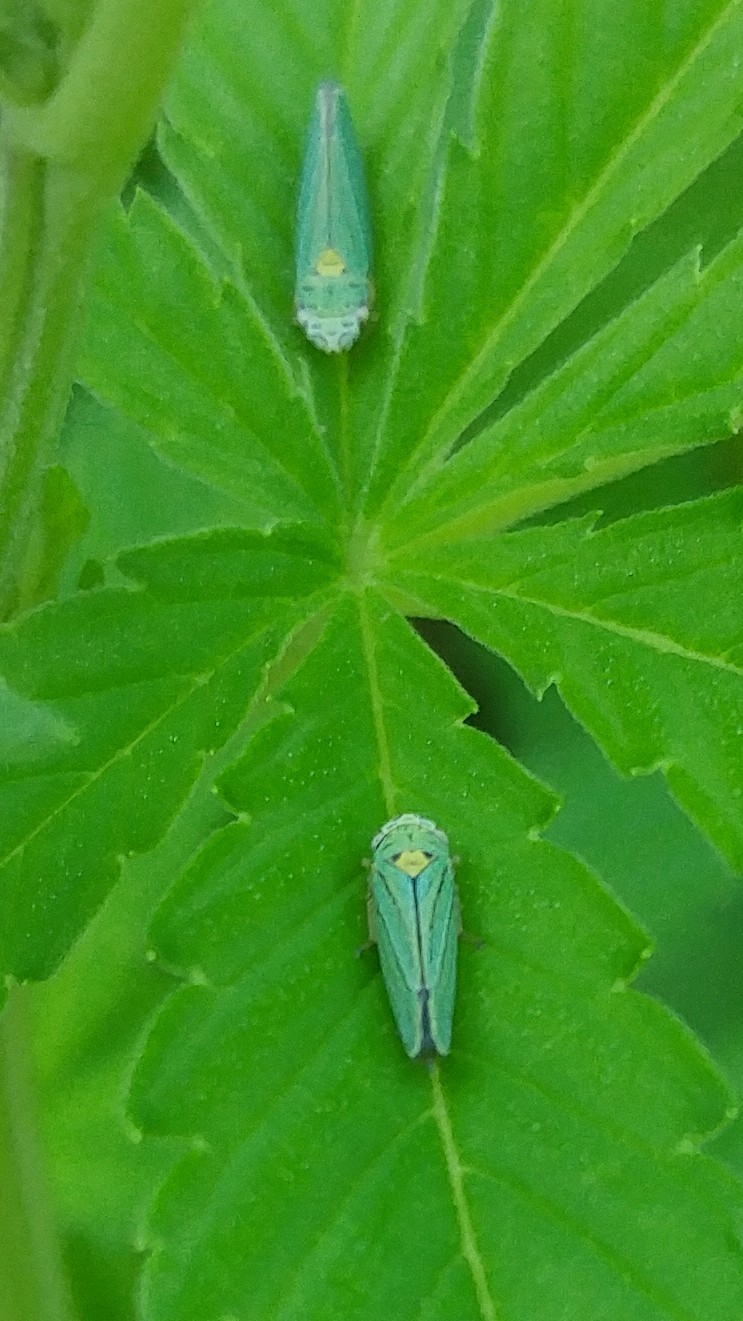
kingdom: Animalia
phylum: Arthropoda
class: Insecta
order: Hemiptera
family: Cicadellidae
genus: Graphocephala
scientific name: Graphocephala atropunctata
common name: Blue-green sharpshooter
